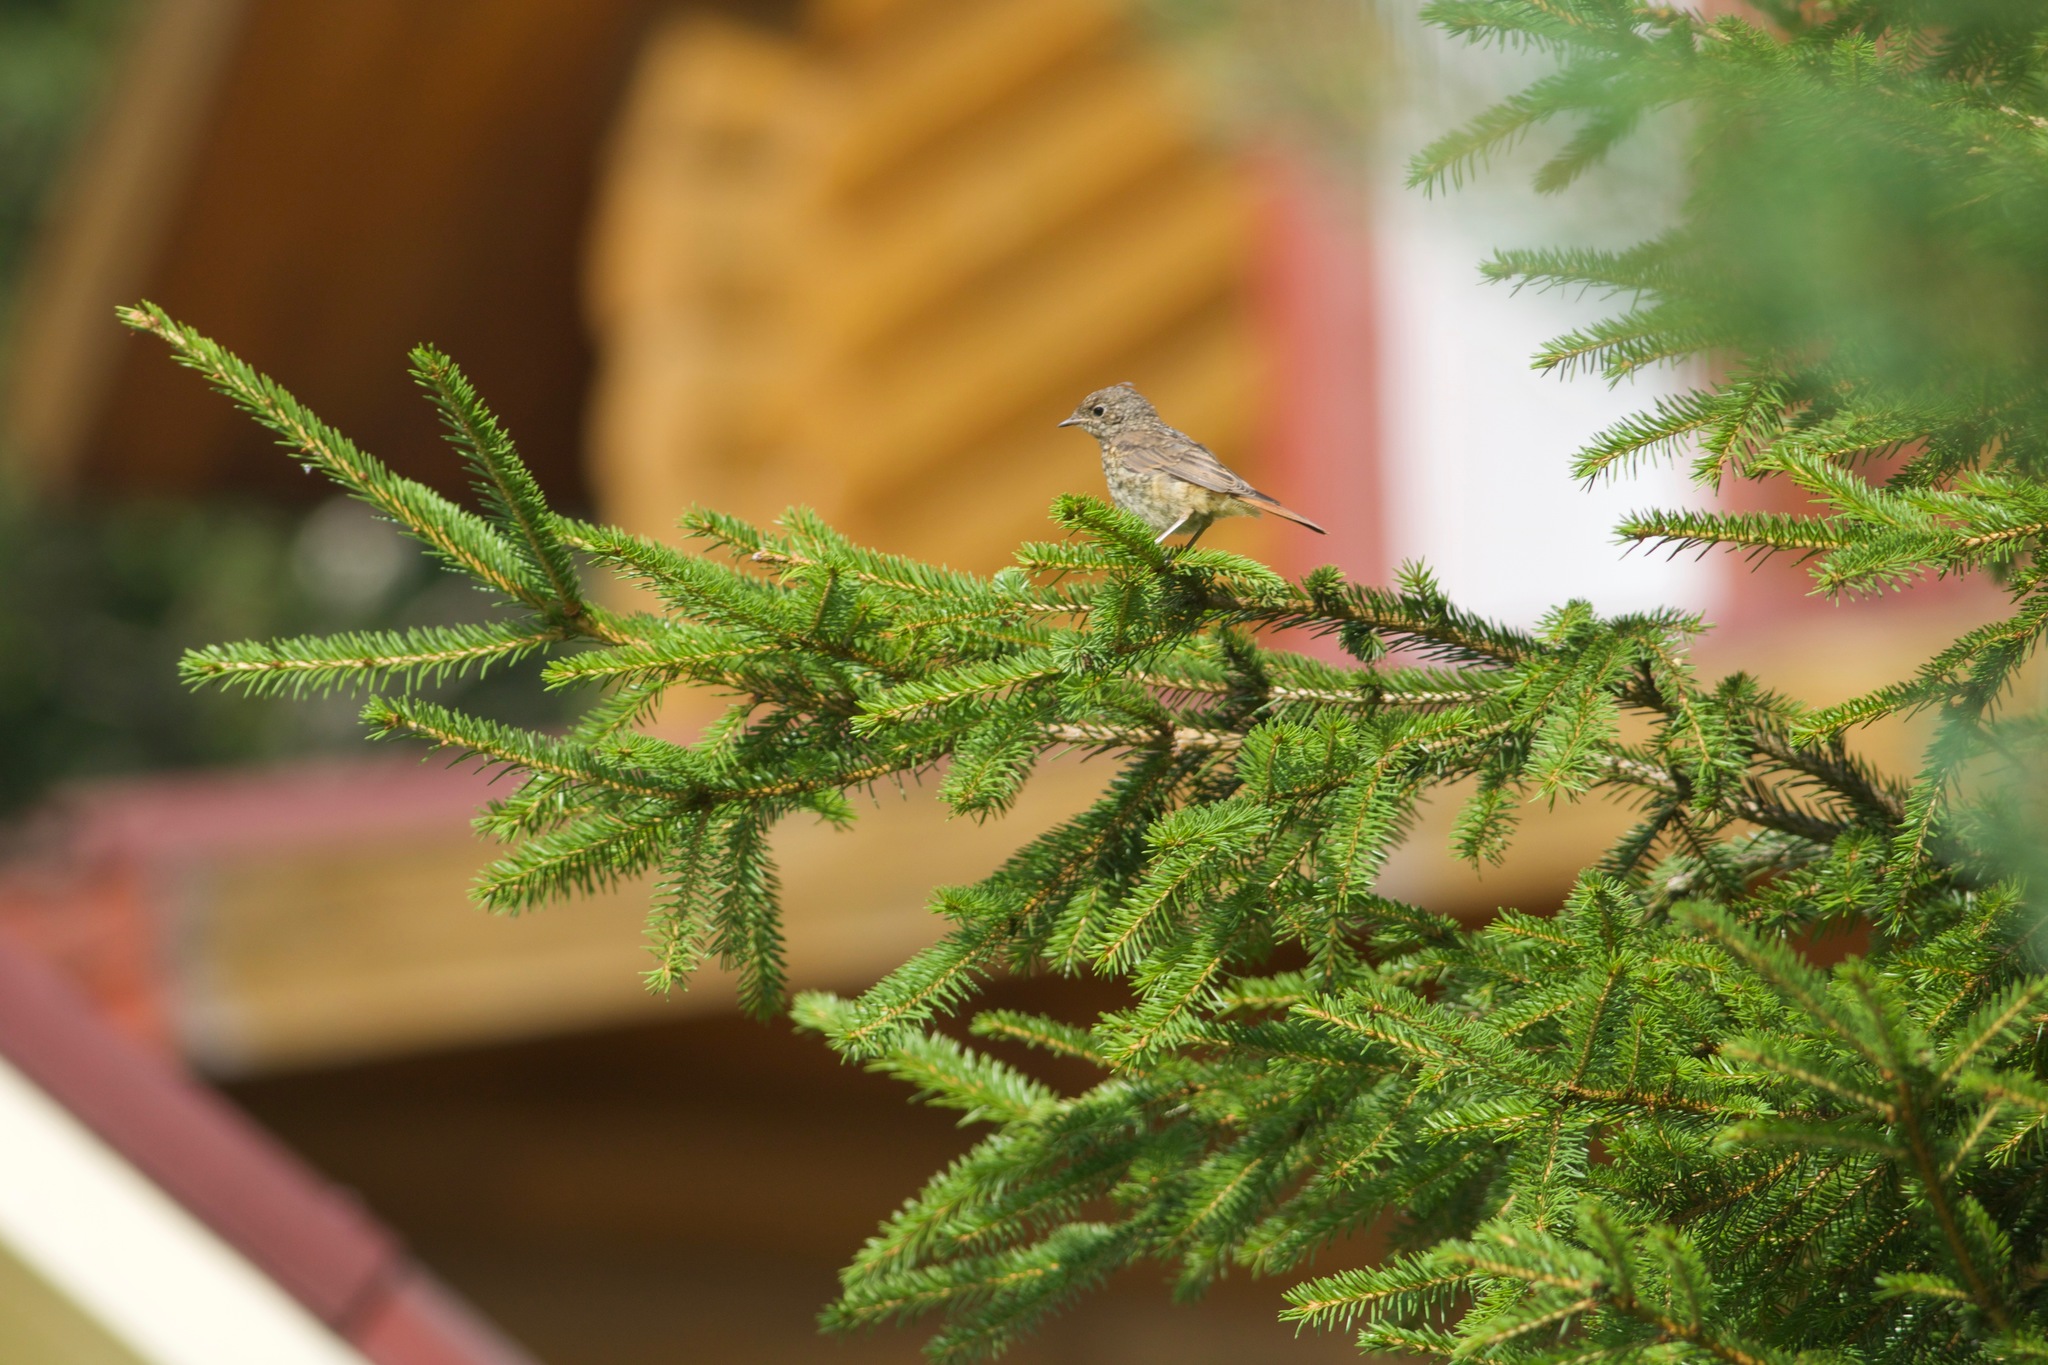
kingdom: Animalia
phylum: Chordata
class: Aves
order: Passeriformes
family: Muscicapidae
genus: Phoenicurus
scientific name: Phoenicurus phoenicurus
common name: Common redstart
